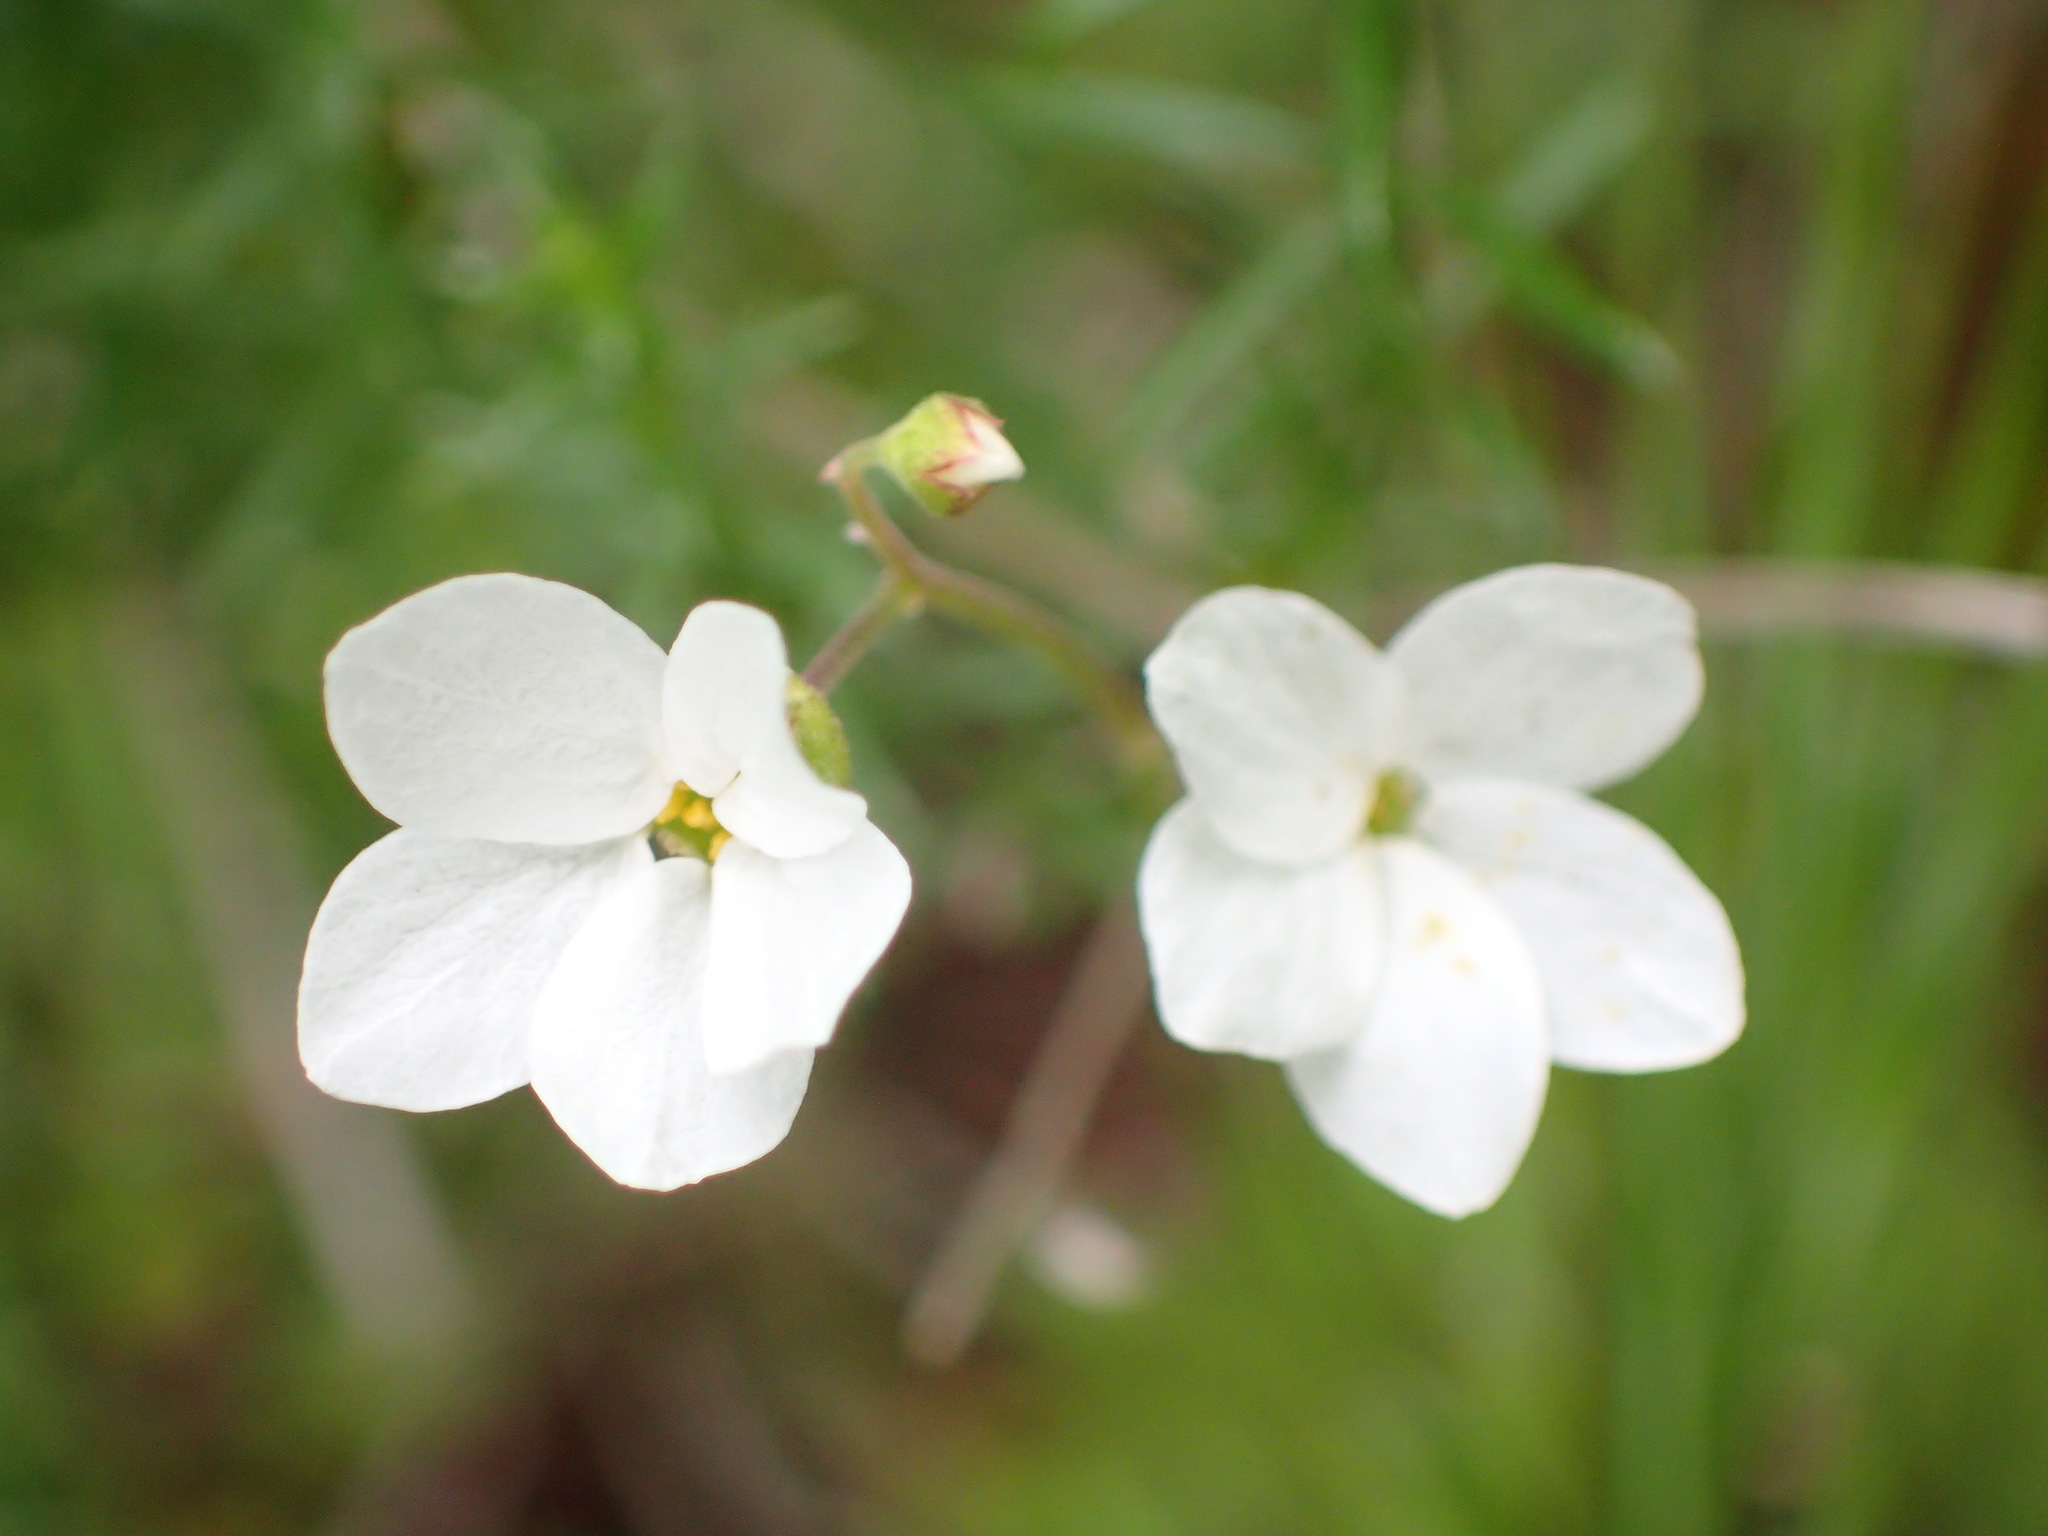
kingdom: Plantae
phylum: Tracheophyta
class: Magnoliopsida
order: Saxifragales
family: Saxifragaceae
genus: Lithophragma
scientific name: Lithophragma cymbalaria
